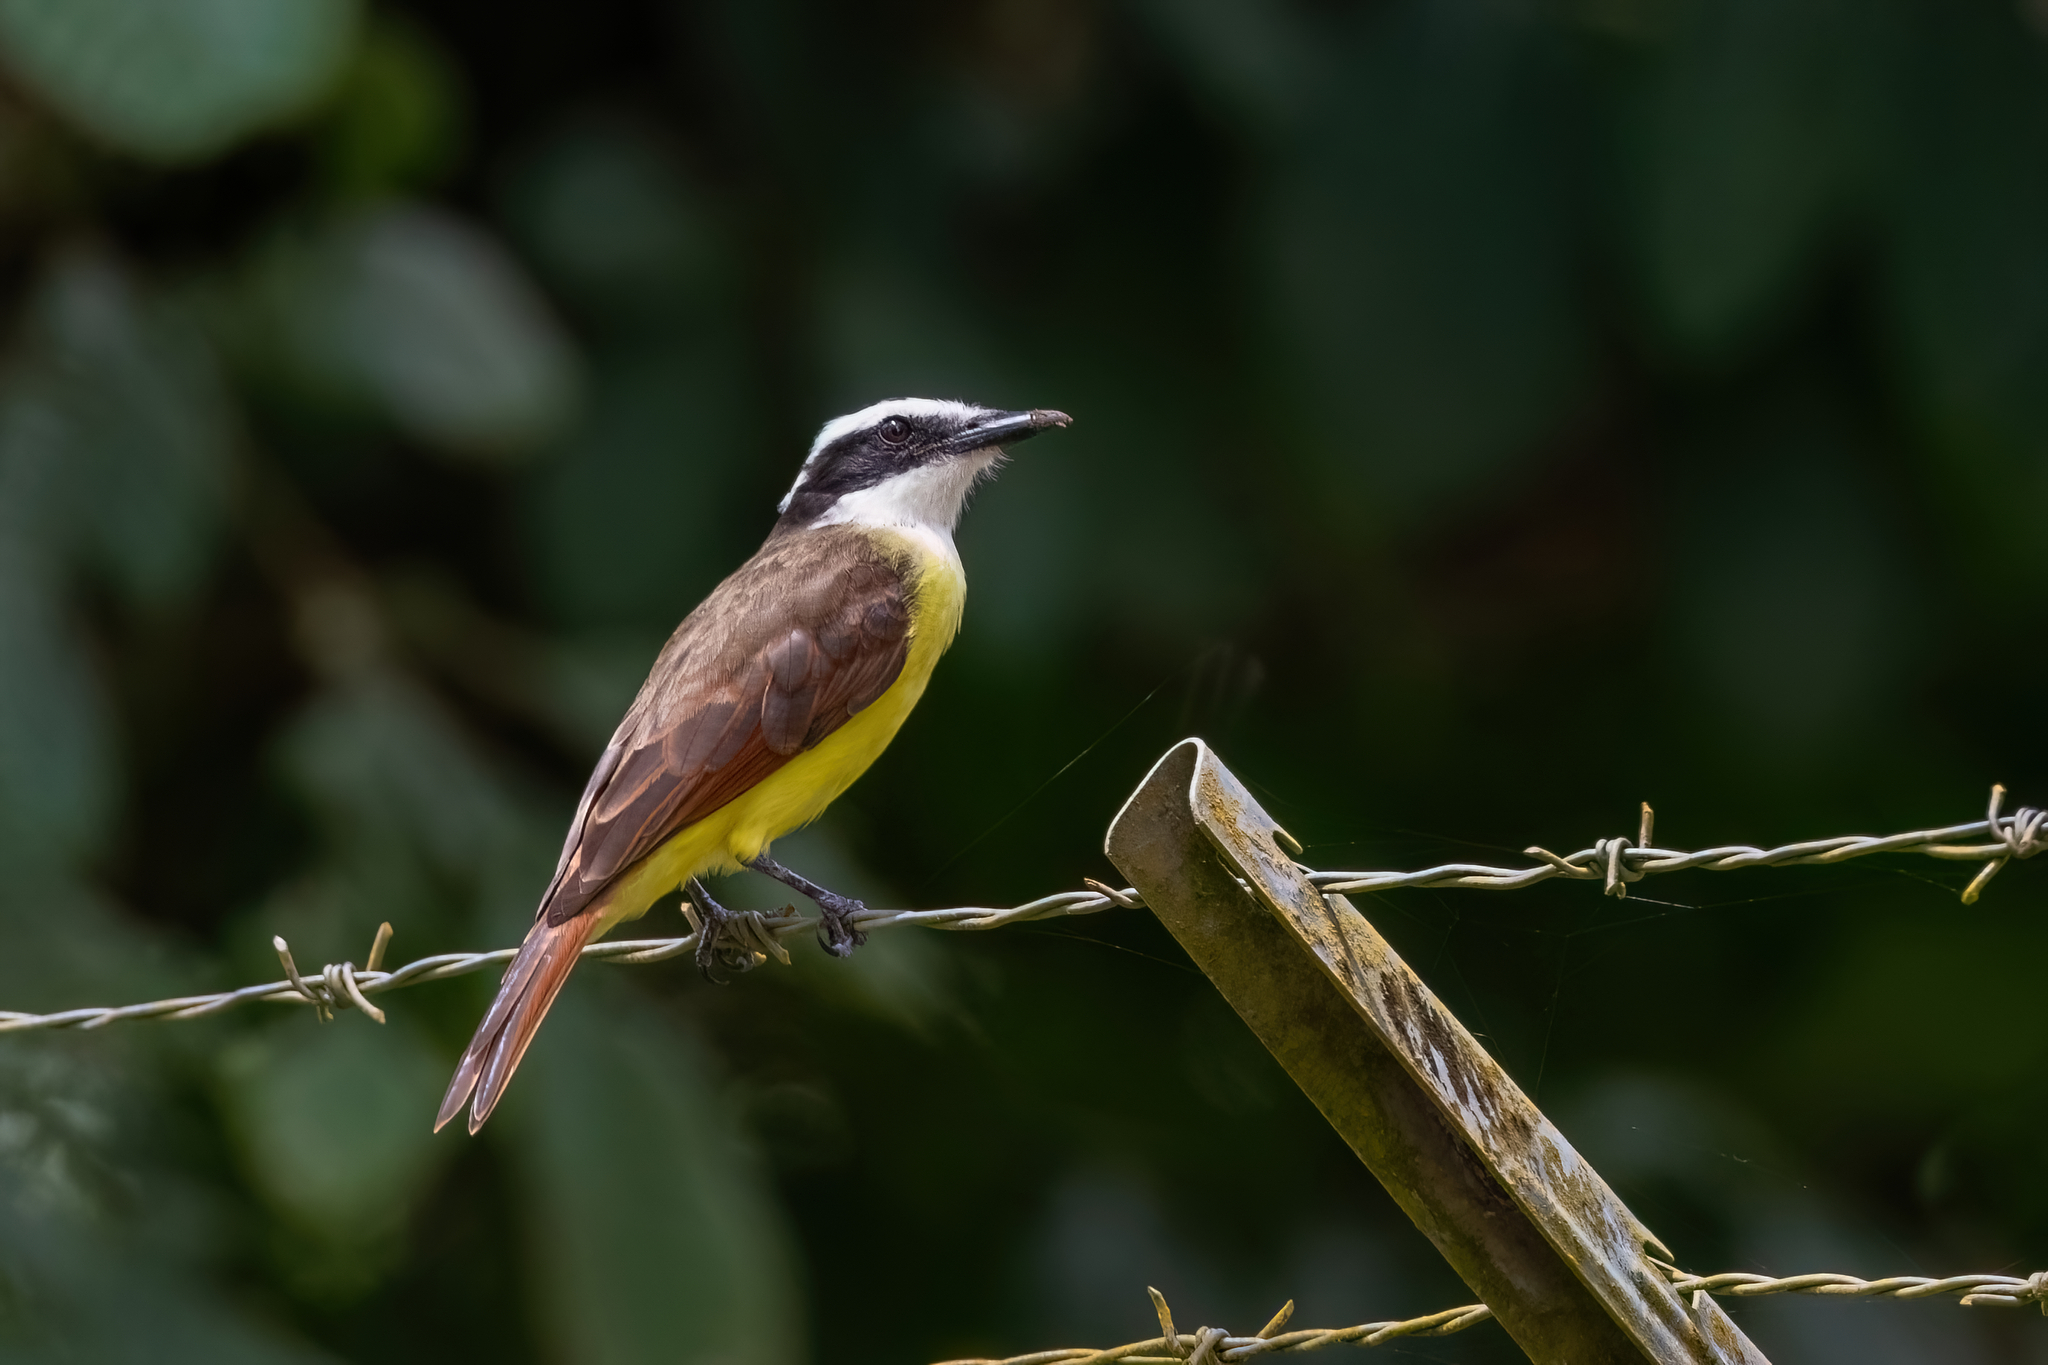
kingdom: Animalia
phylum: Chordata
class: Aves
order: Passeriformes
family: Tyrannidae
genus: Pitangus
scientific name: Pitangus lictor
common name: Lesser kiskadee
